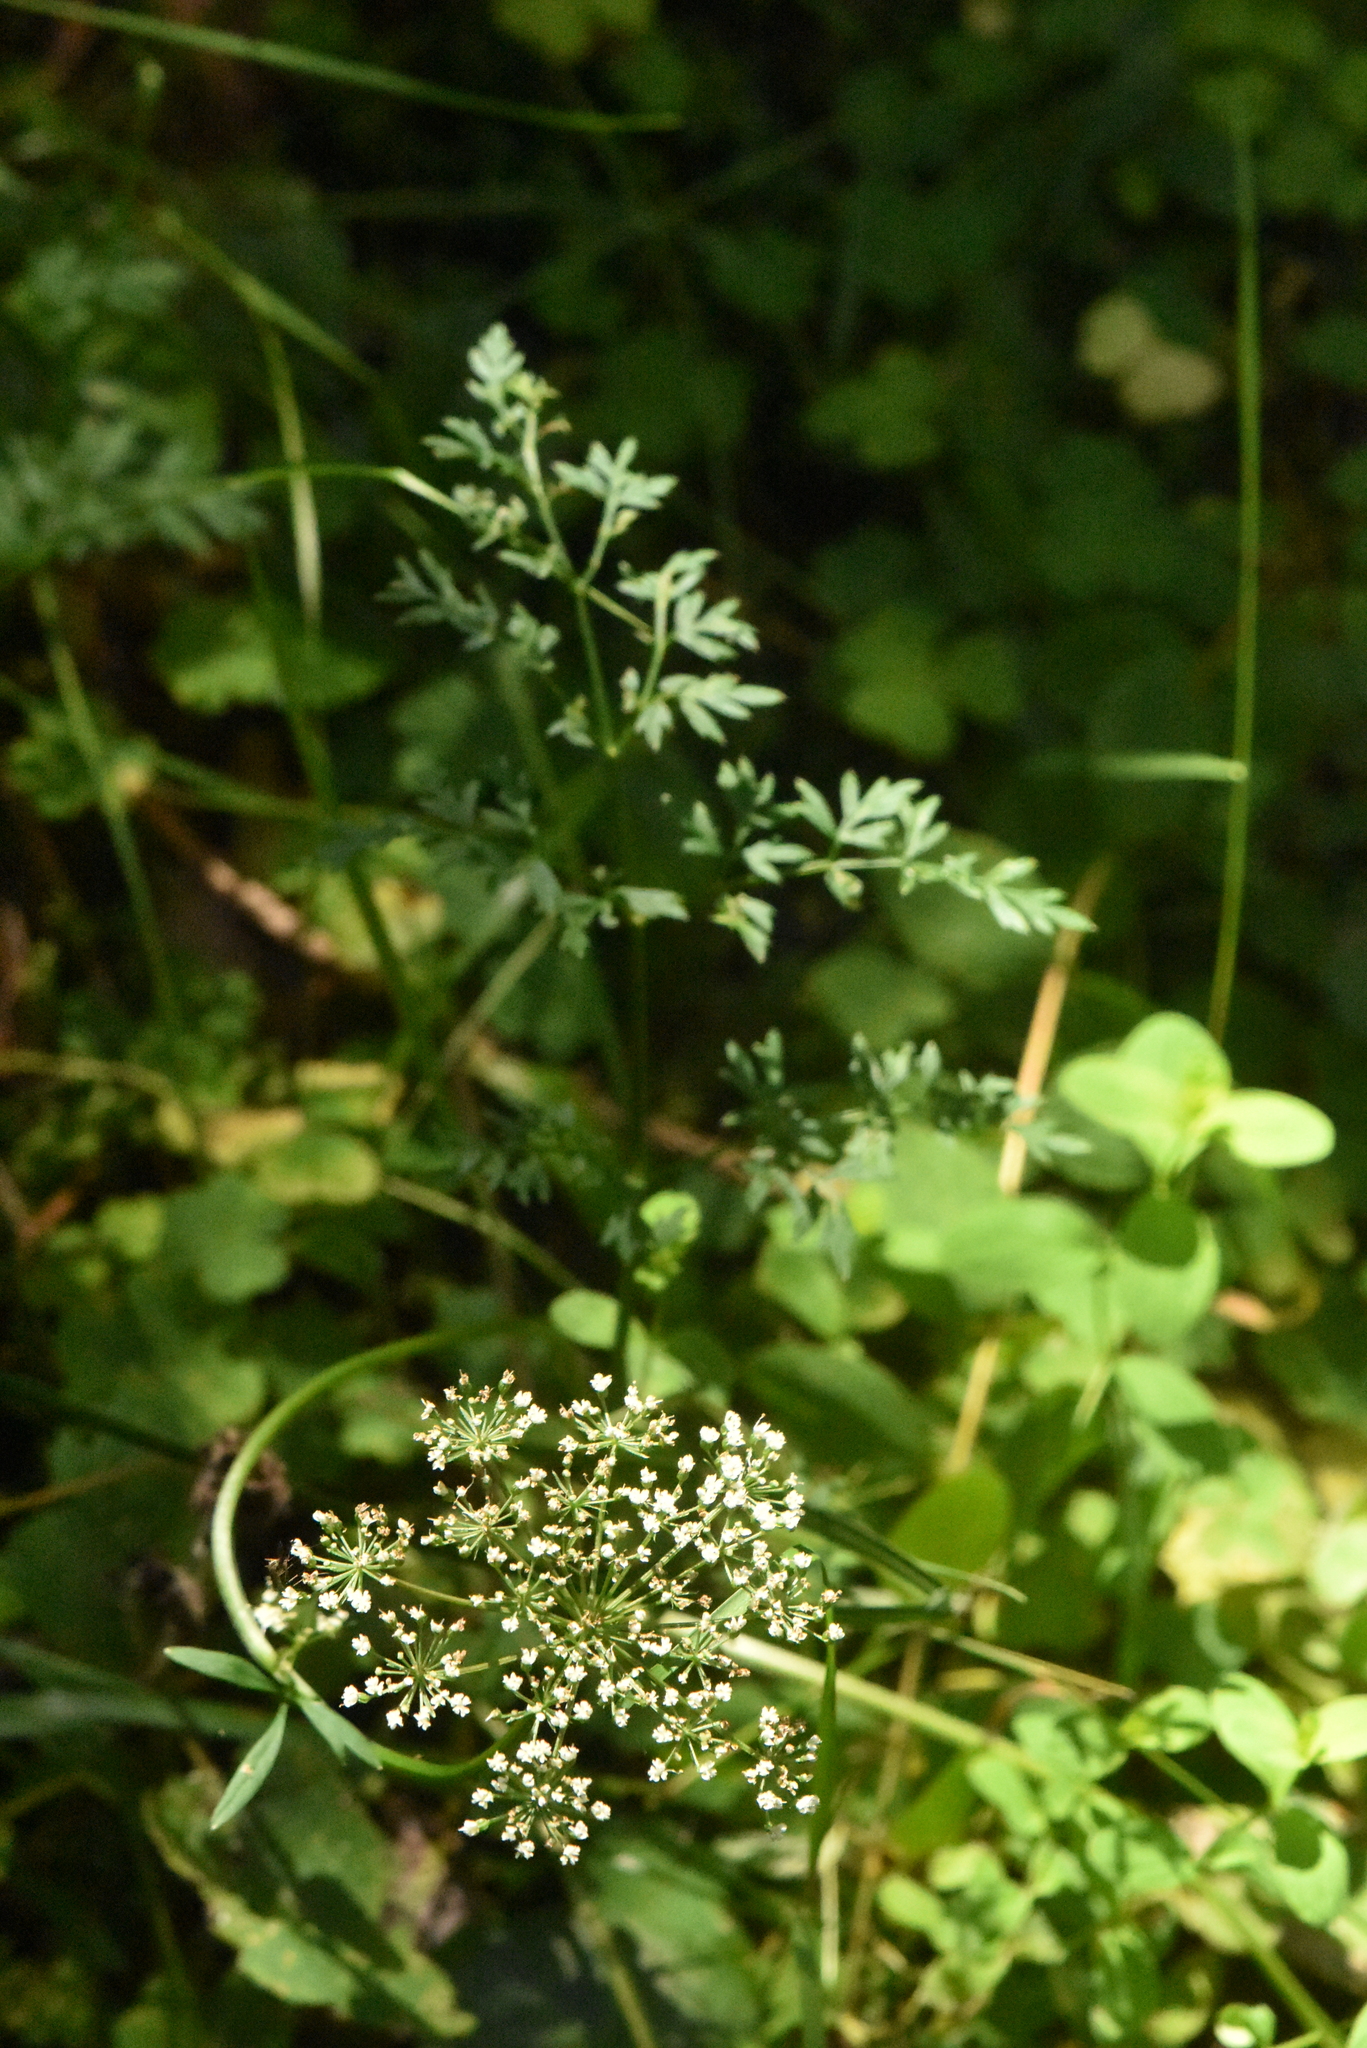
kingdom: Plantae
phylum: Tracheophyta
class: Magnoliopsida
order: Apiales
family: Apiaceae
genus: Selinum
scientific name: Selinum carvifolia
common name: Cambridge milk-parsley
